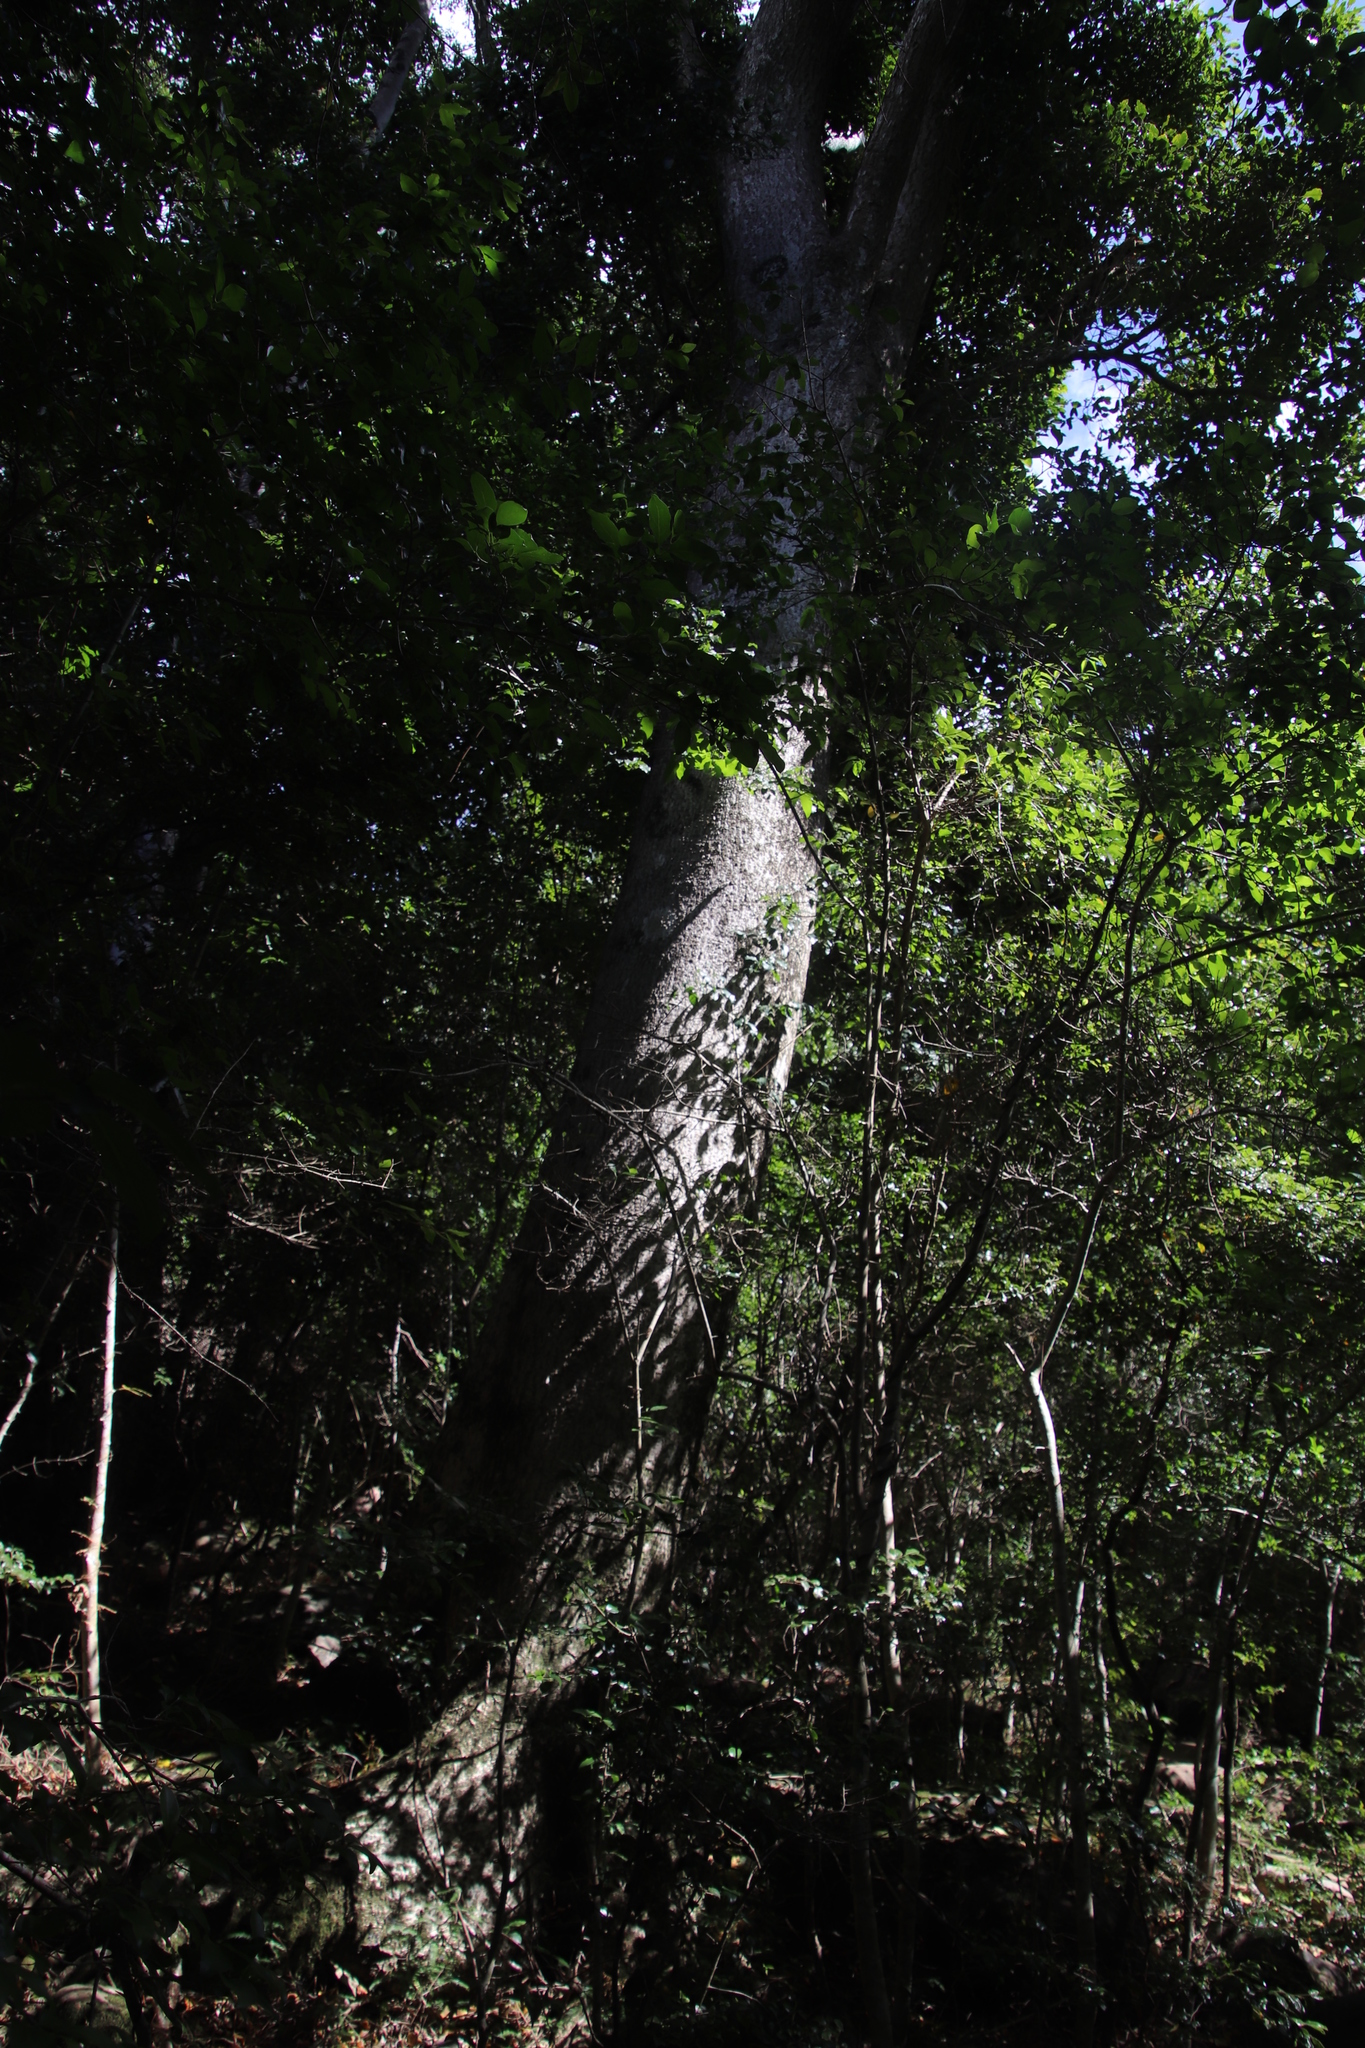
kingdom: Plantae
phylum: Tracheophyta
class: Magnoliopsida
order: Metteniusales
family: Metteniusaceae
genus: Apodytes
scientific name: Apodytes dimidiata
